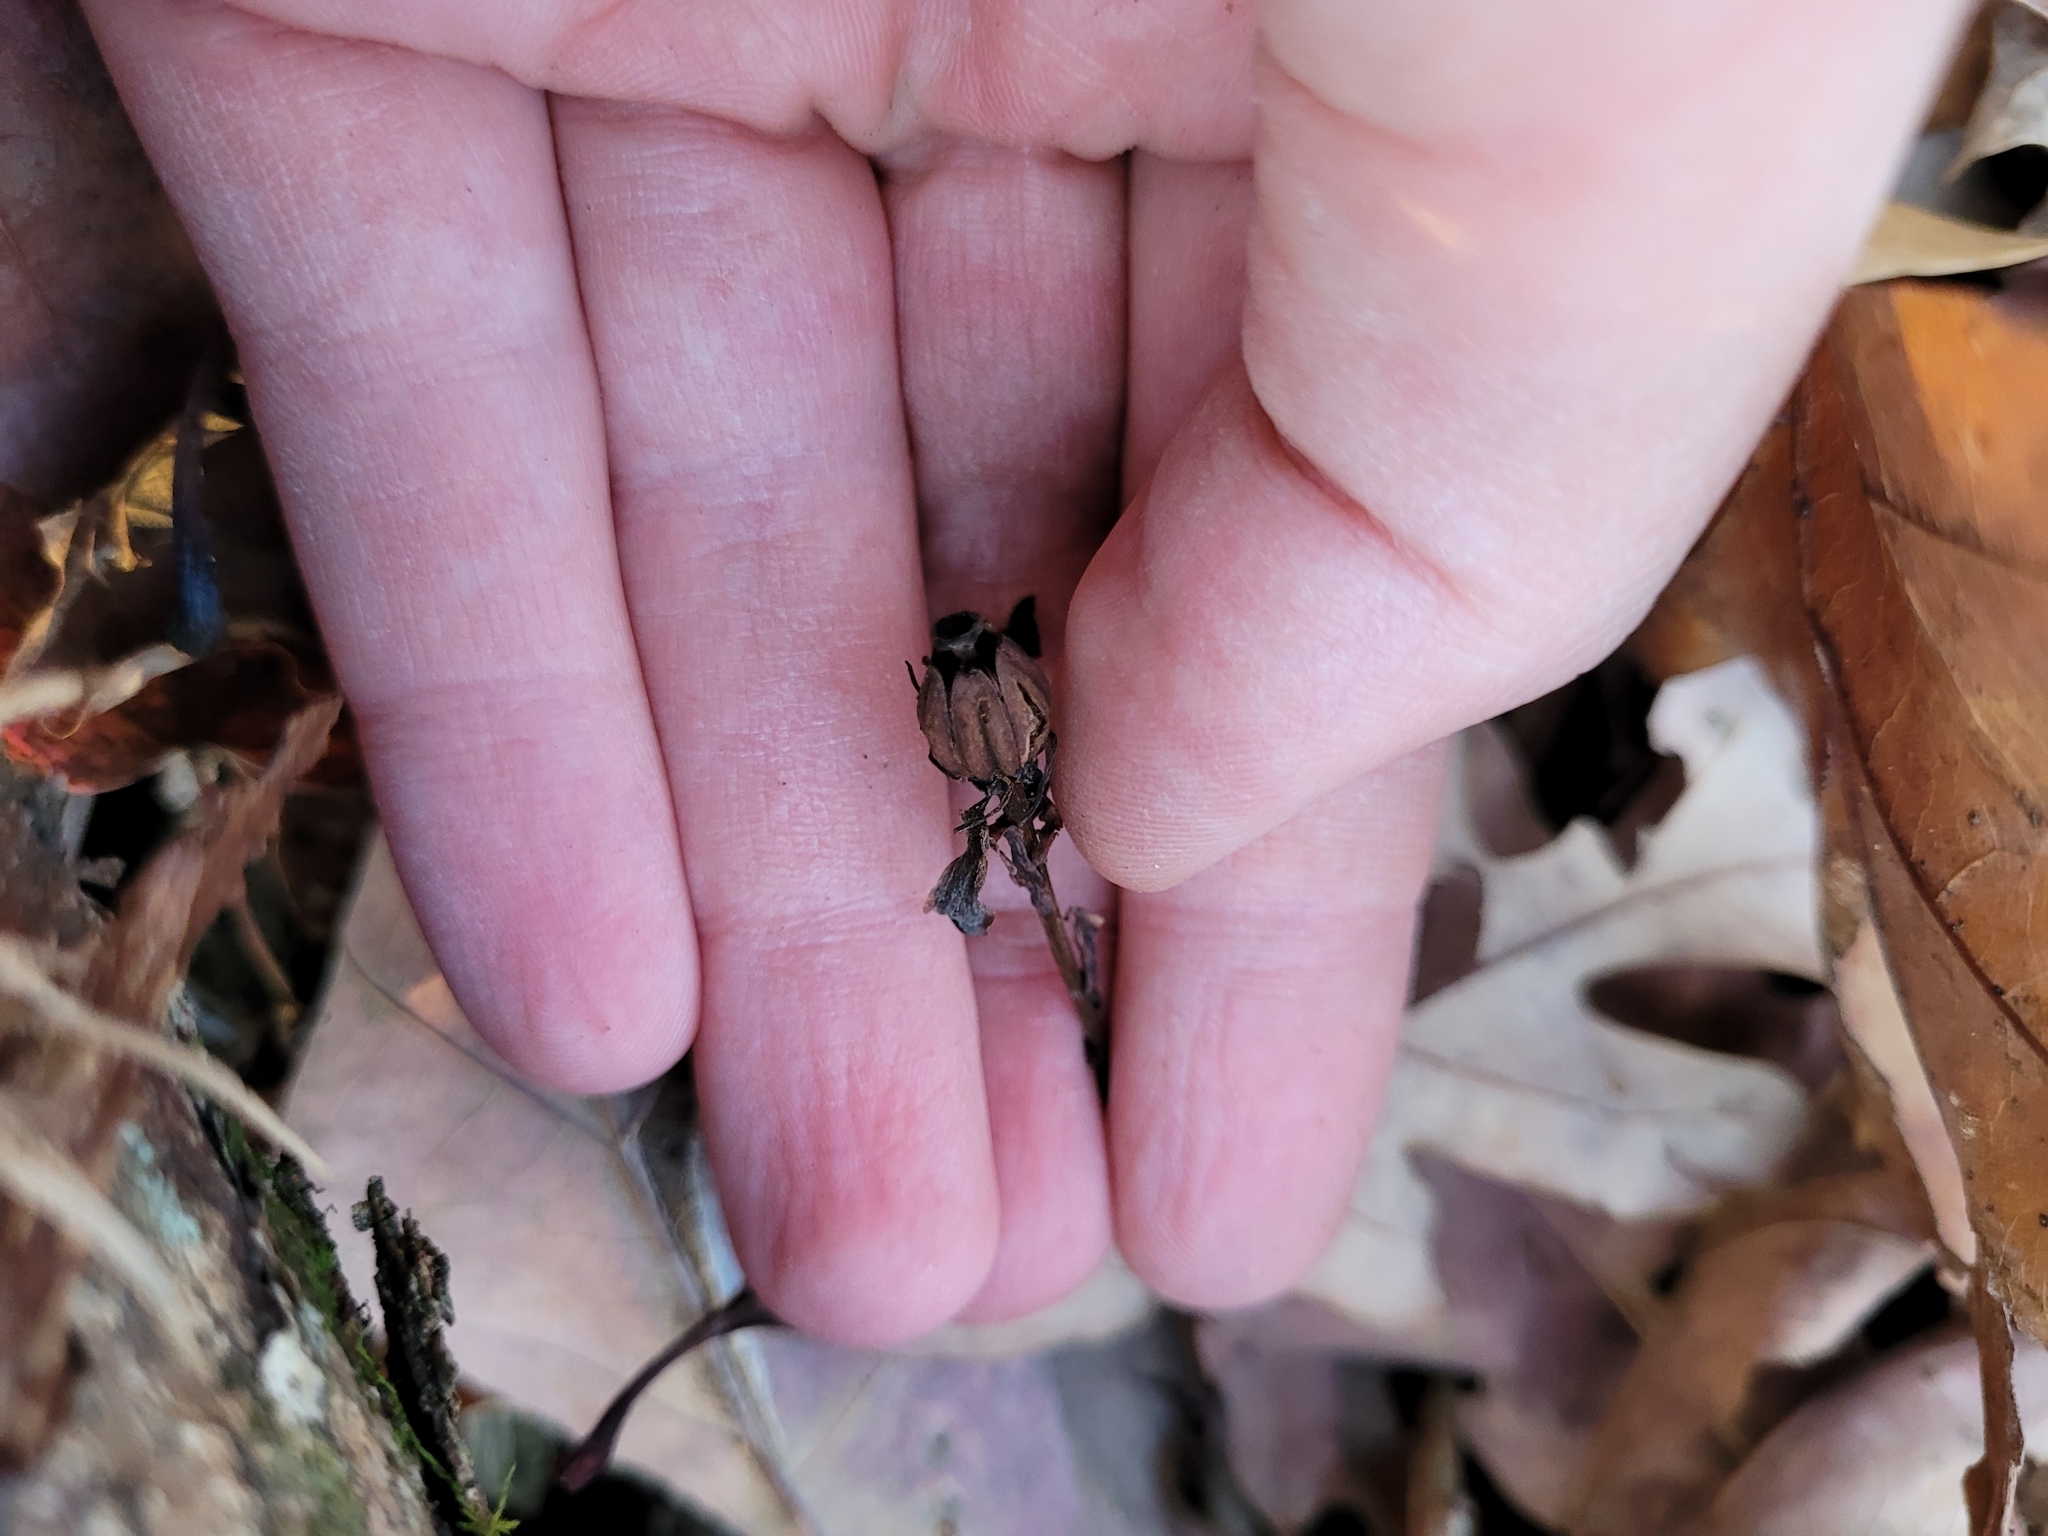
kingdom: Plantae
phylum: Tracheophyta
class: Magnoliopsida
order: Ericales
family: Ericaceae
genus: Monotropa
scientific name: Monotropa uniflora
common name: Convulsion root
